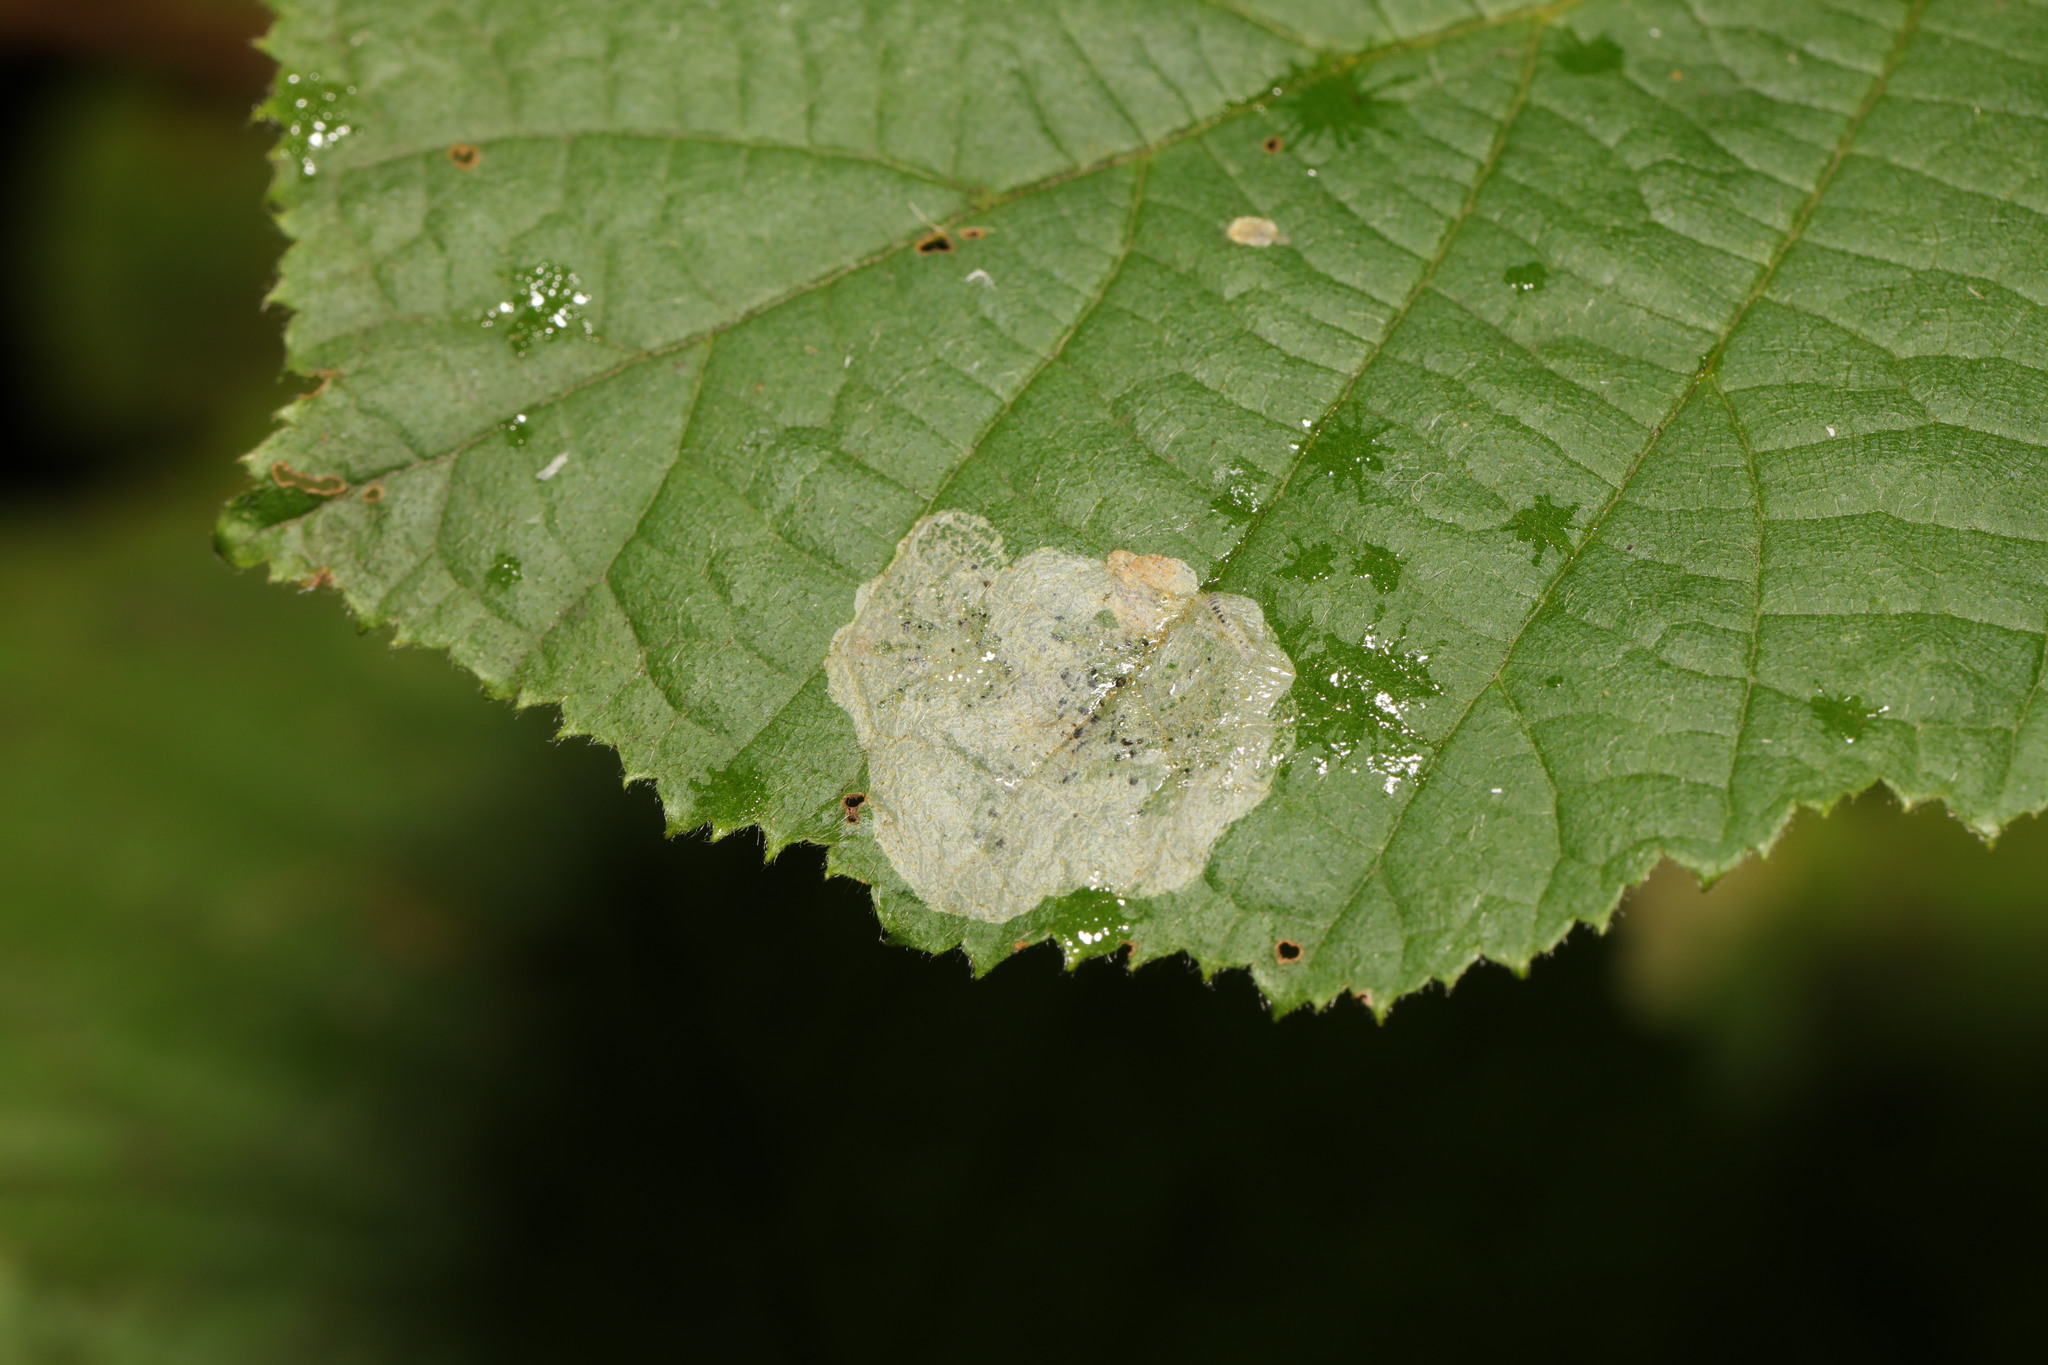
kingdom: Animalia
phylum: Arthropoda
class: Insecta
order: Lepidoptera
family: Gracillariidae
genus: Phyllonorycter
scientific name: Phyllonorycter coryli
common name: Nut-leaf blister moth
